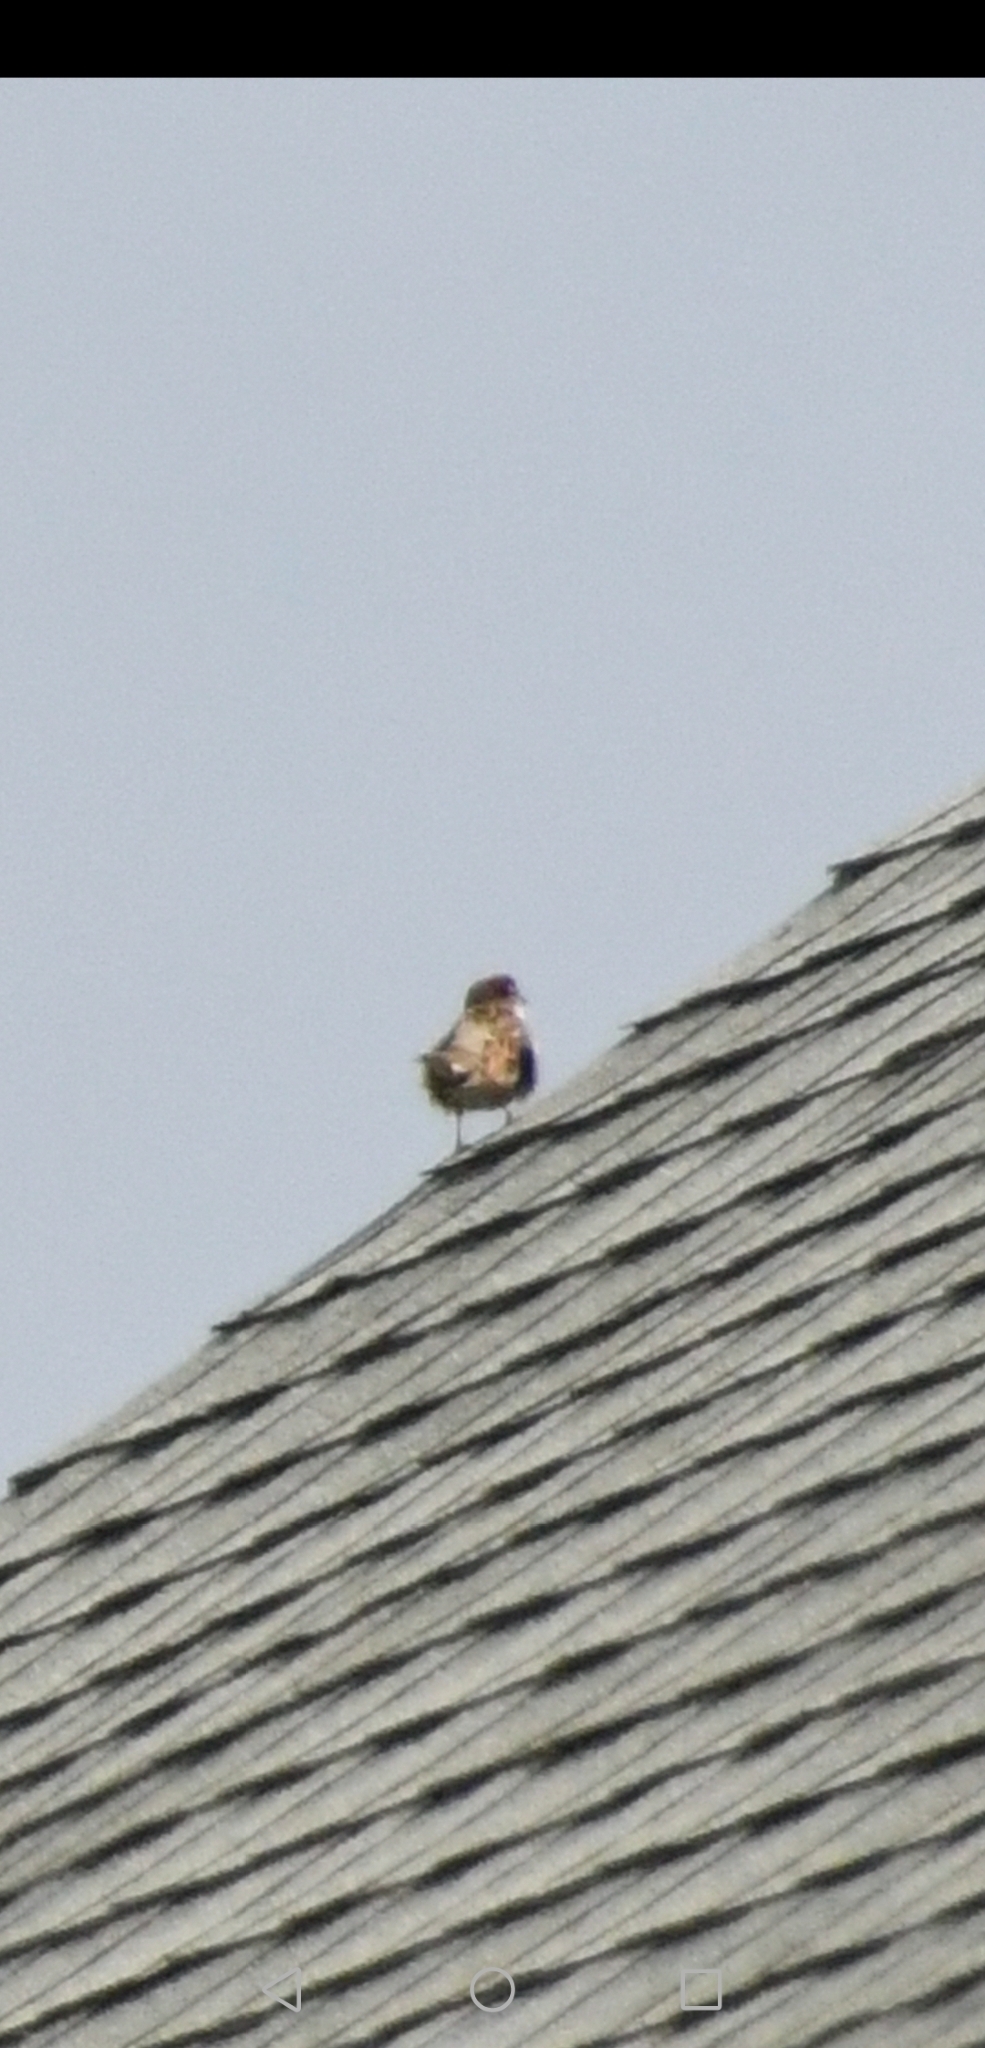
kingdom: Animalia
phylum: Chordata
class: Aves
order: Passeriformes
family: Passeridae
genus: Passer
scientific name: Passer domesticus
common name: House sparrow
